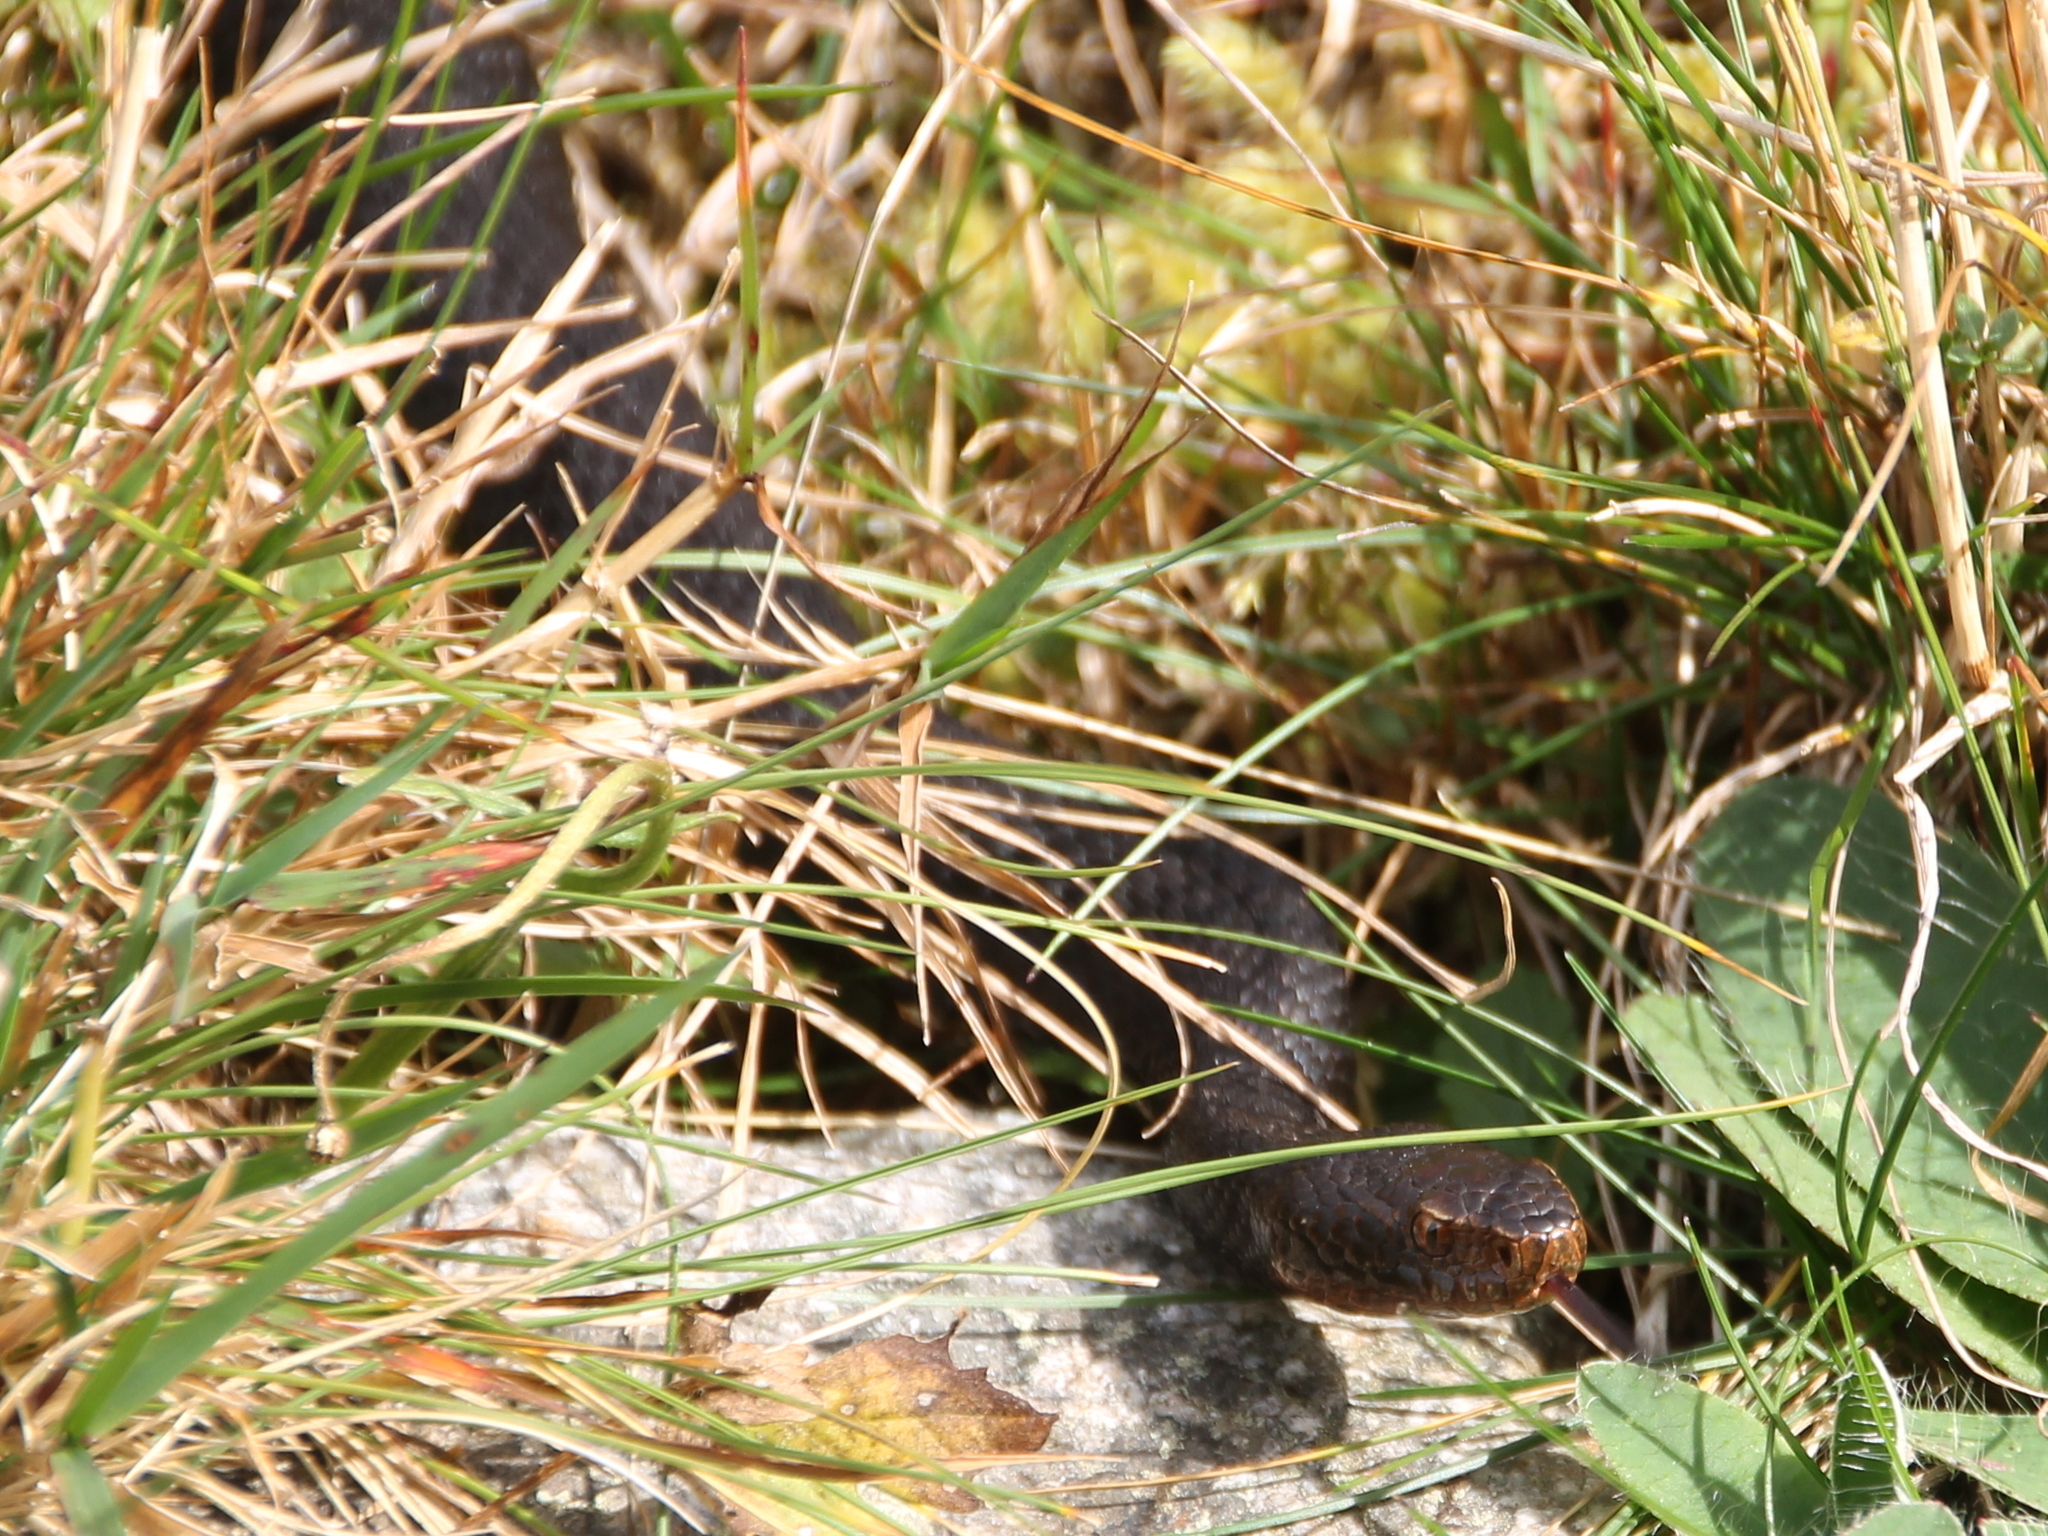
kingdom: Animalia
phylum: Chordata
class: Squamata
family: Viperidae
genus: Vipera
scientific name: Vipera berus
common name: Adder
